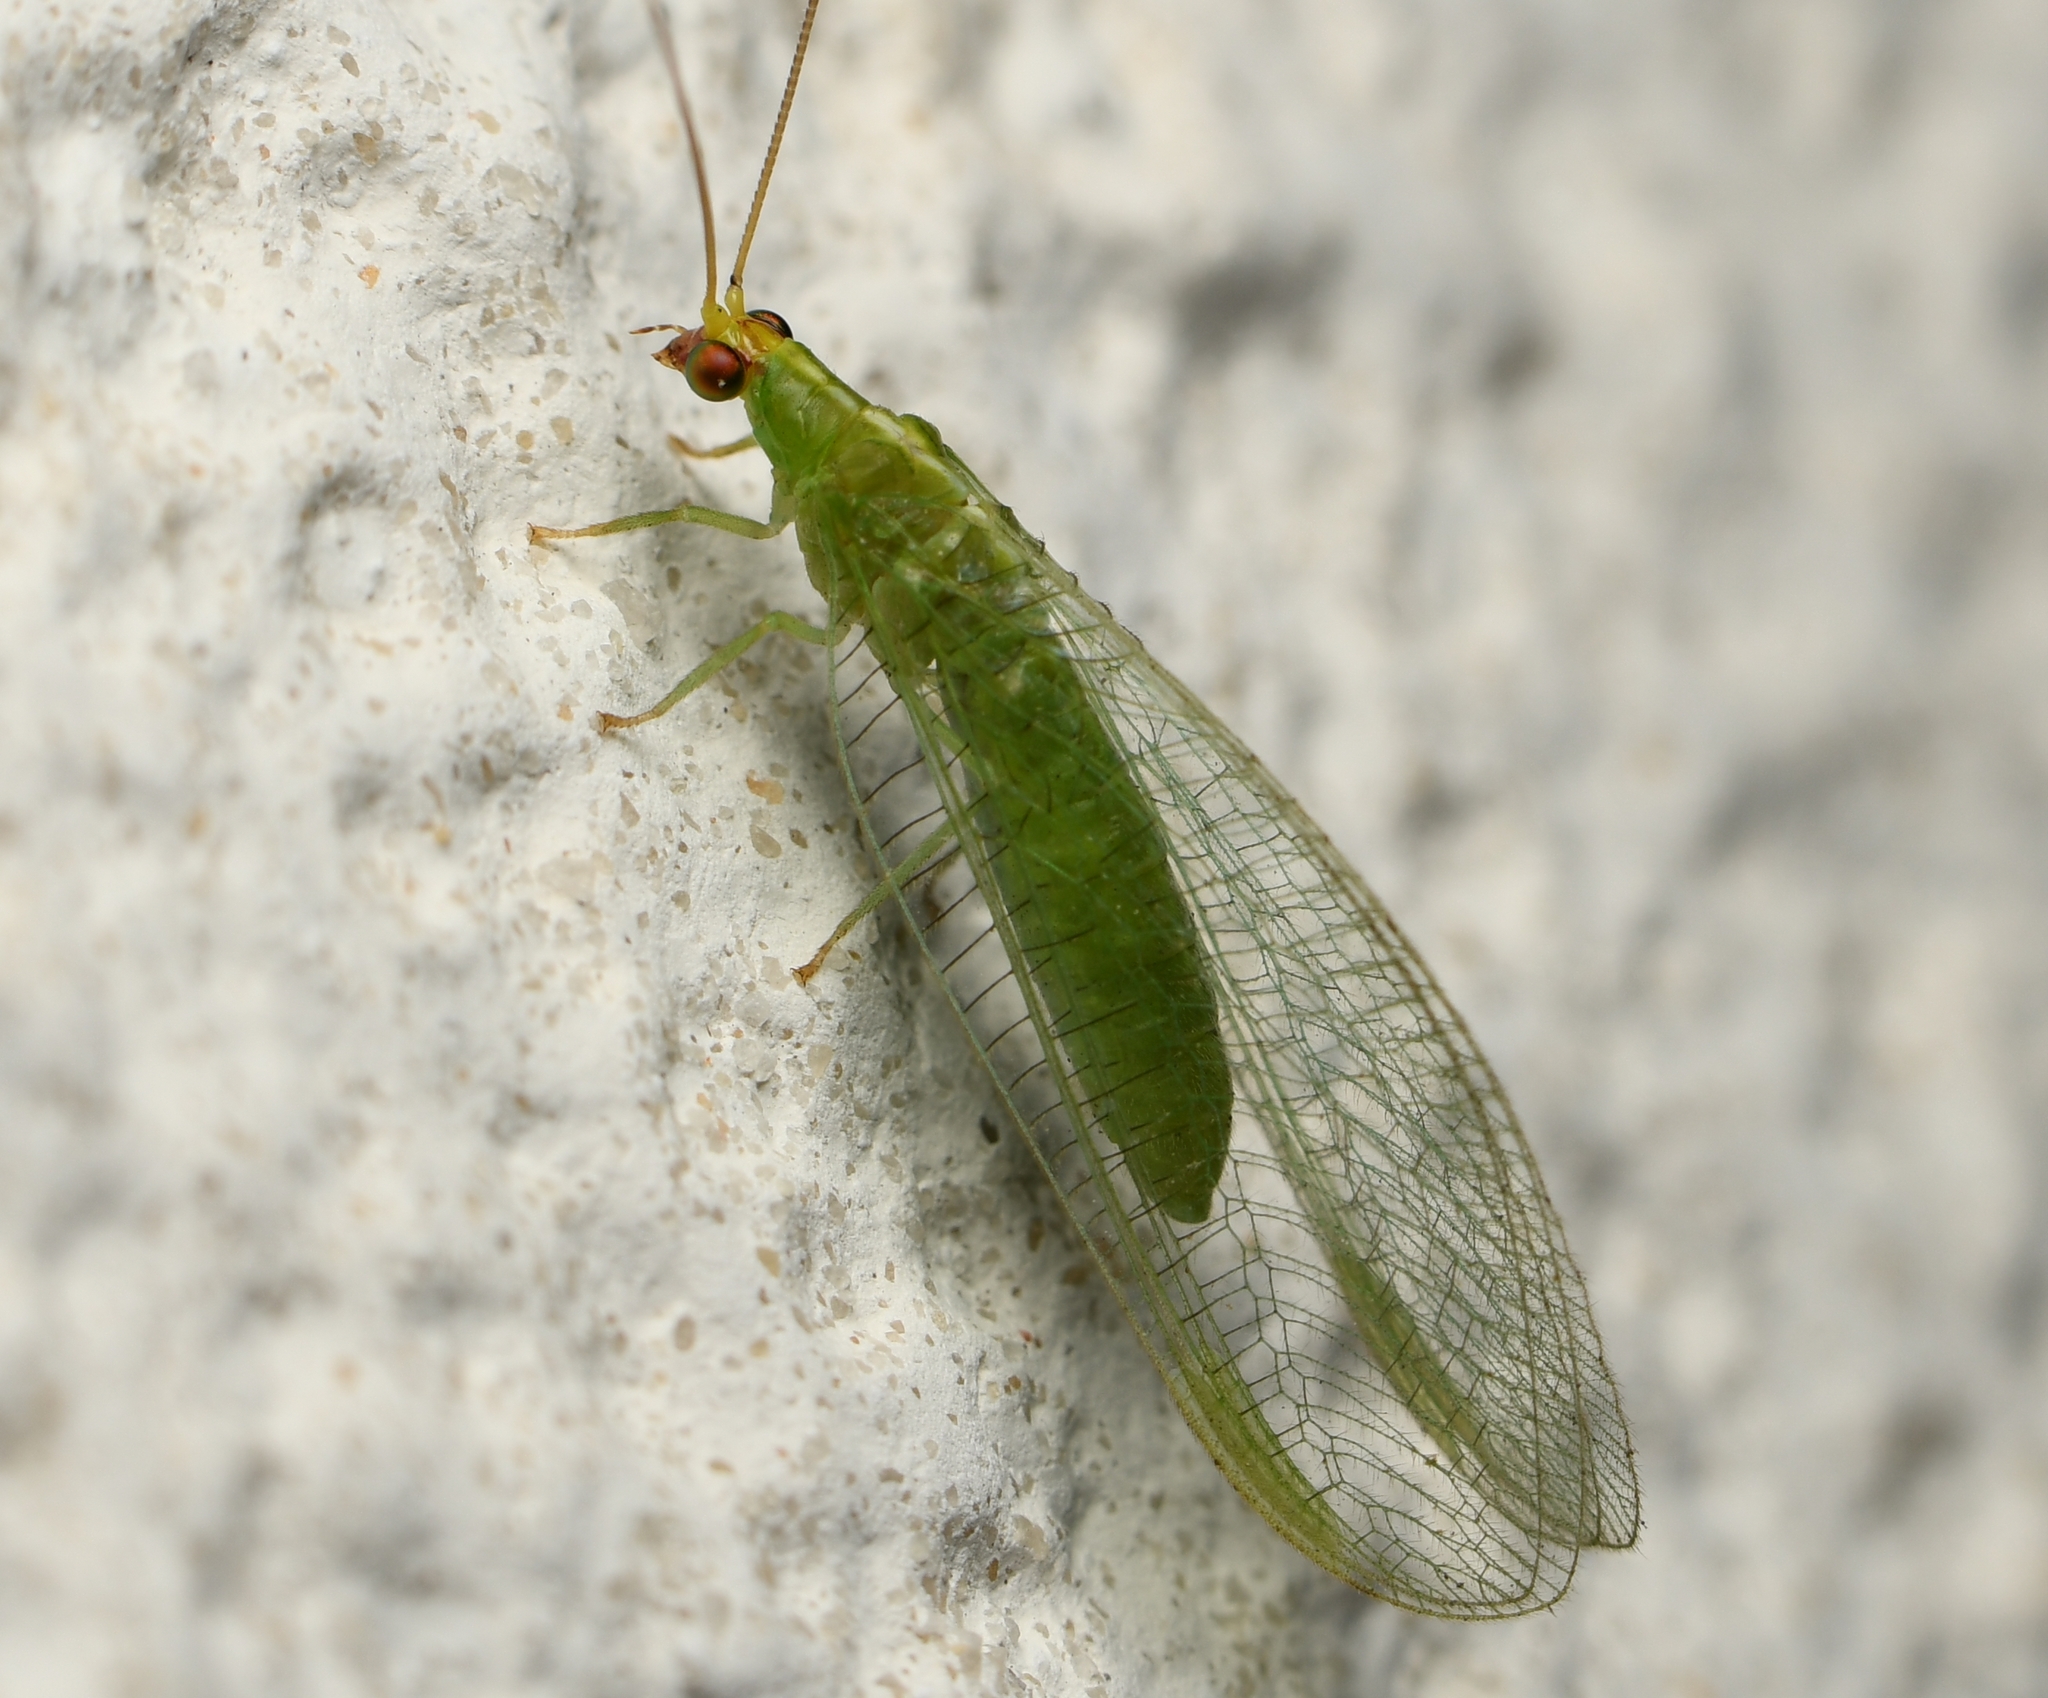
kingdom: Animalia
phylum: Arthropoda
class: Insecta
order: Neuroptera
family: Chrysopidae
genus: Chrysopodes
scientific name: Chrysopodes collaris
